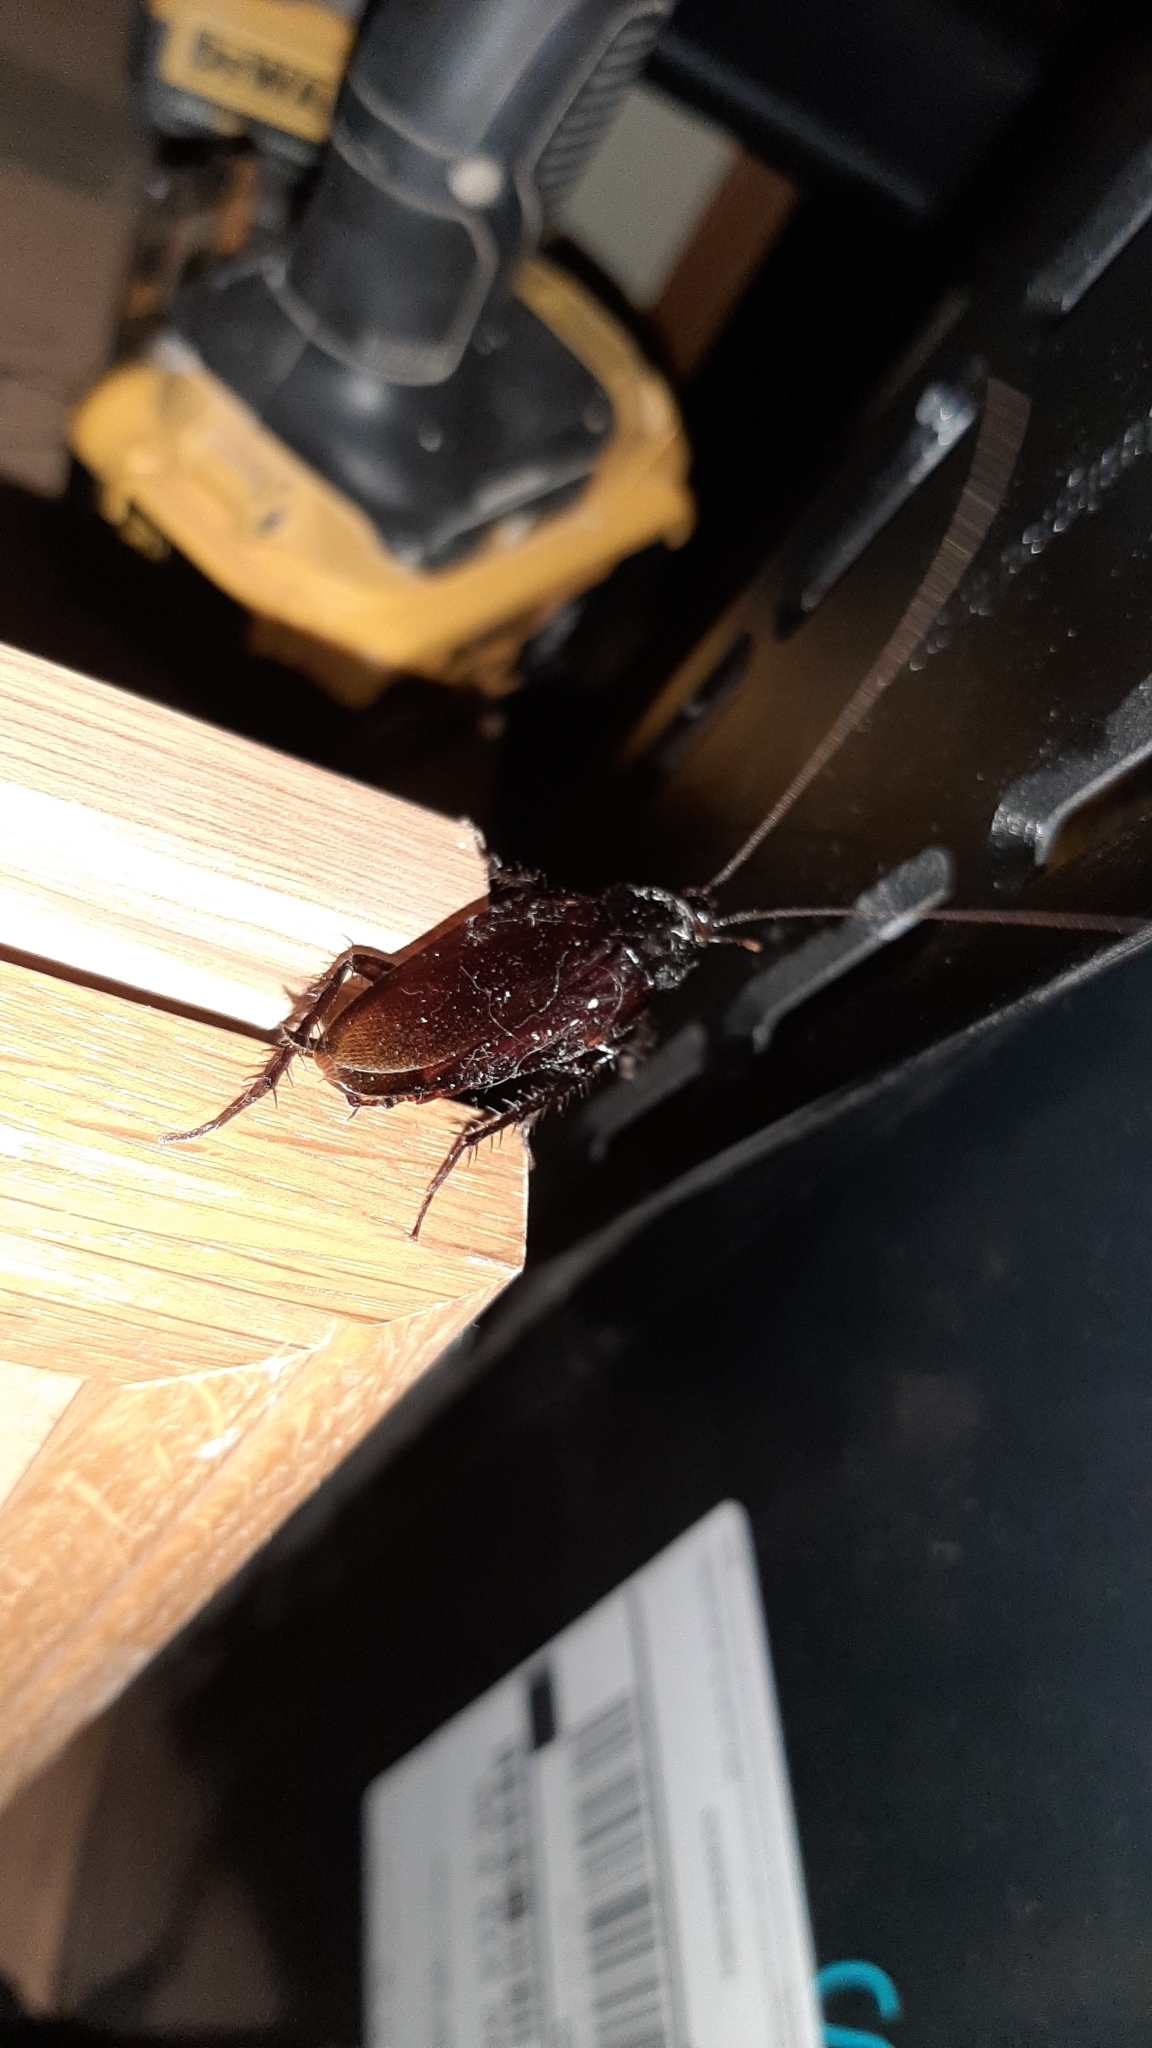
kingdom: Animalia
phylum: Arthropoda
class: Insecta
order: Blattodea
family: Blattidae
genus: Periplaneta
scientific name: Periplaneta fuliginosa
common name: Smokeybrown cockroad
